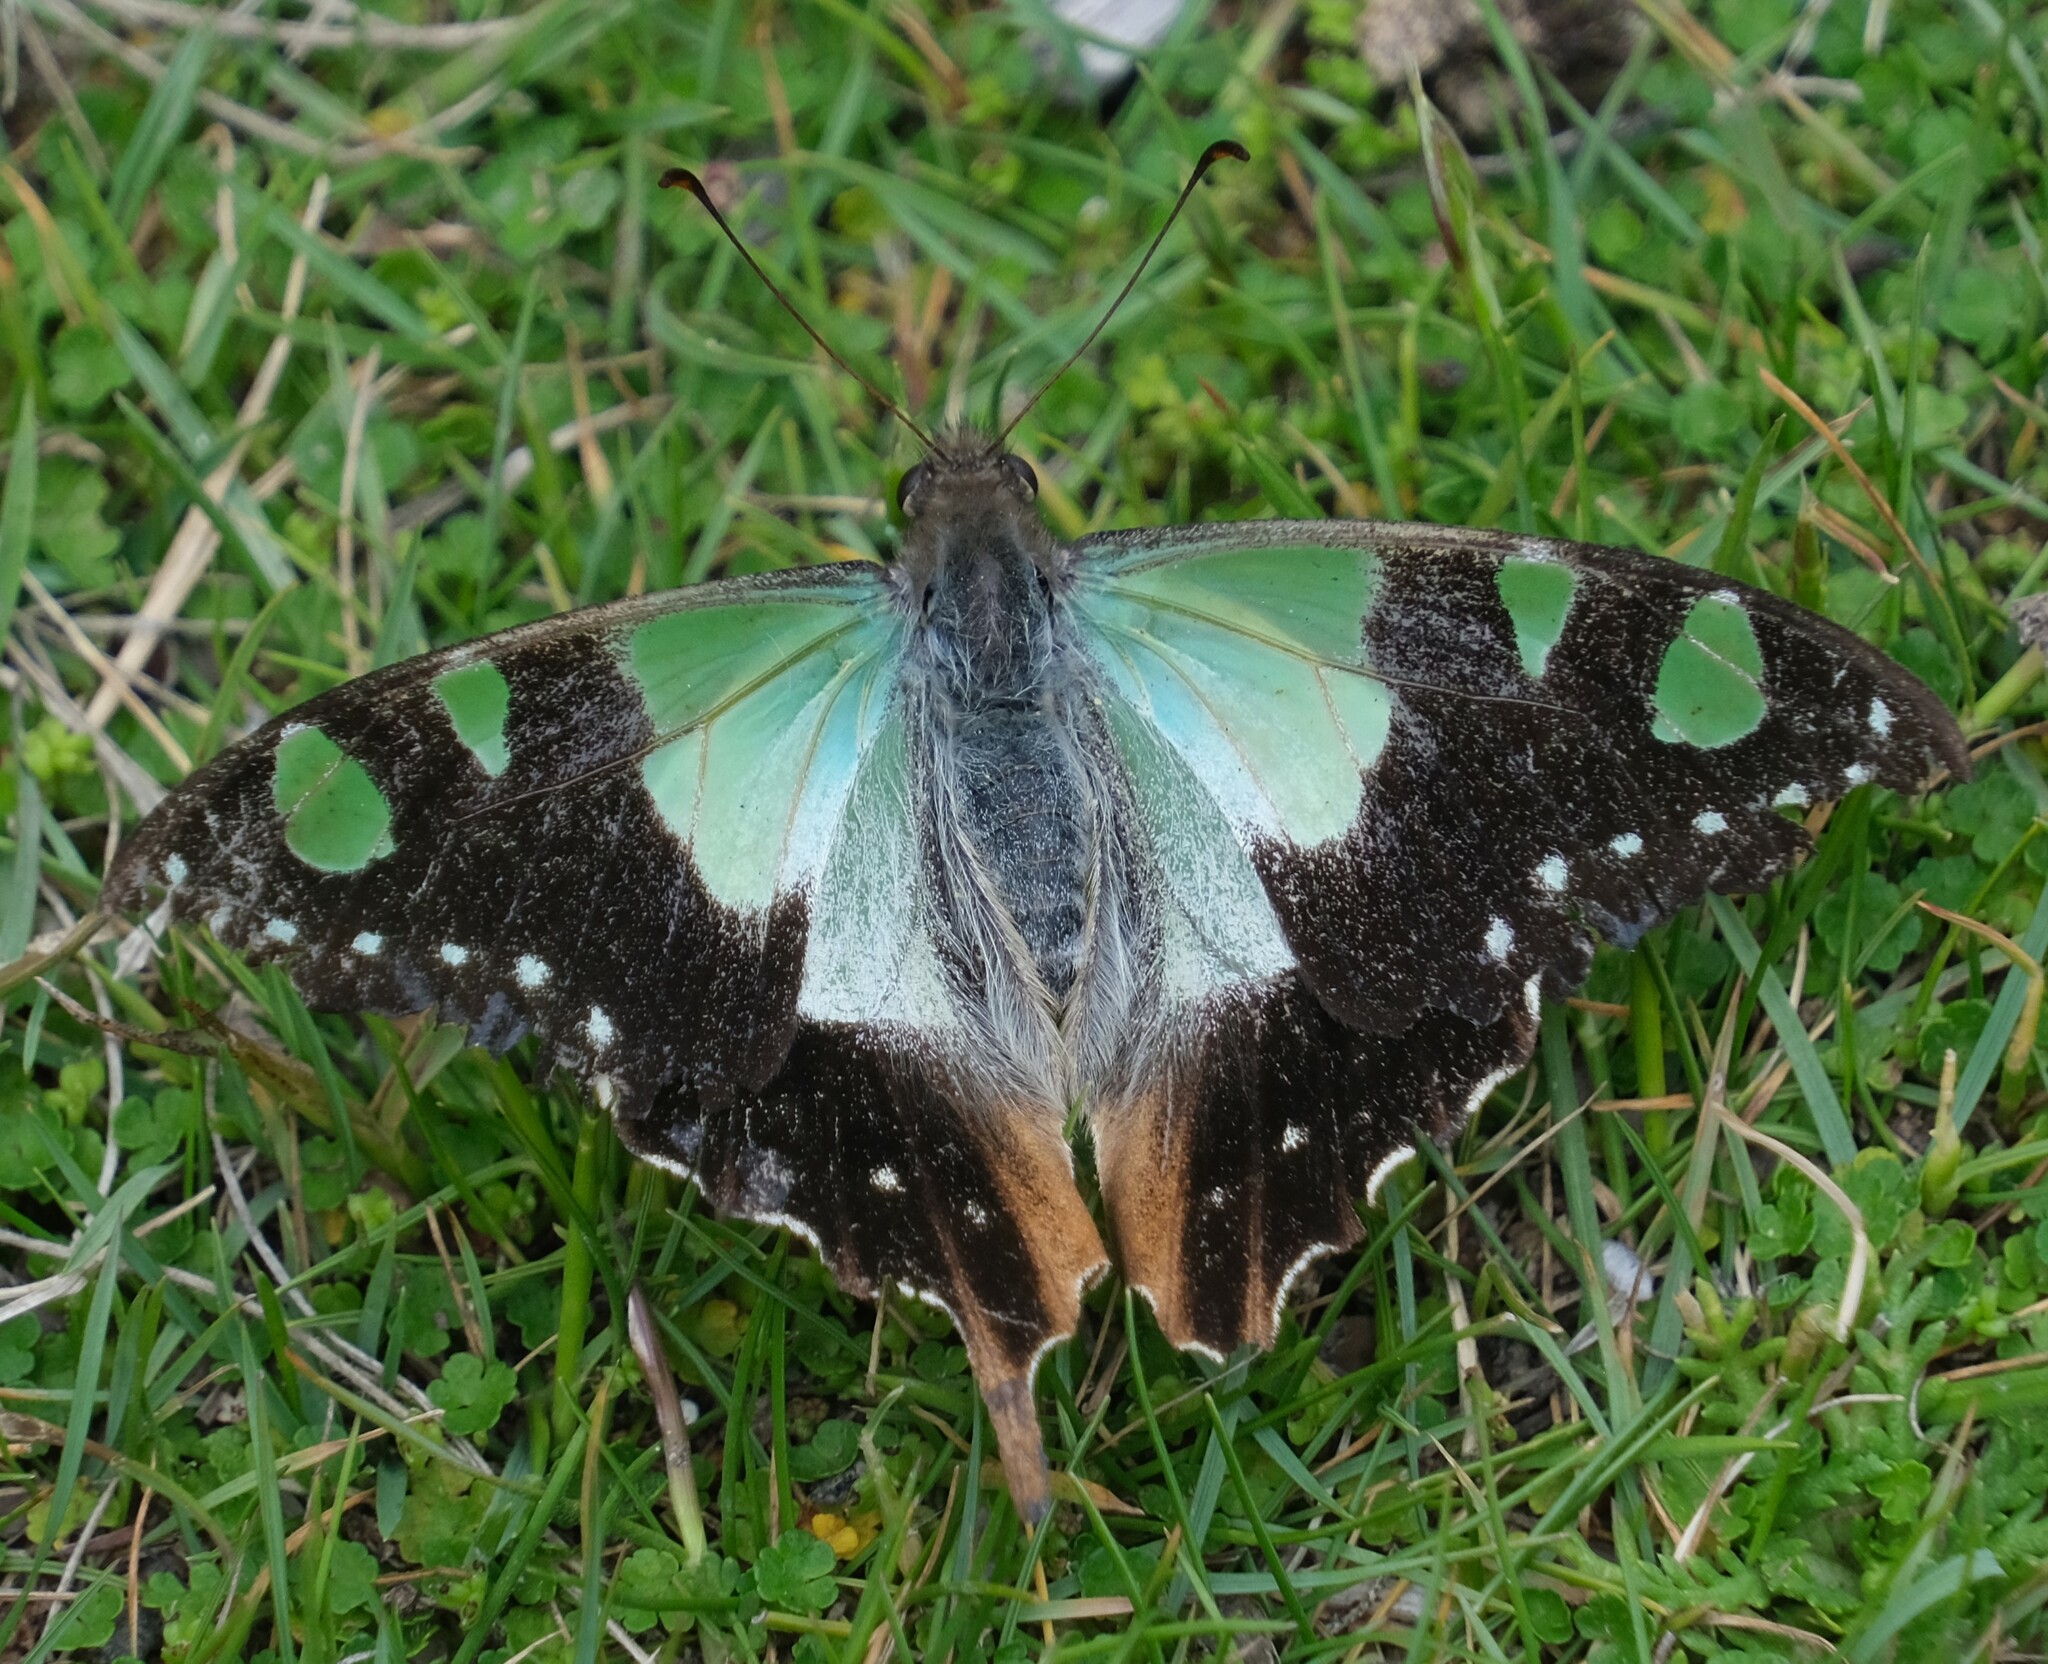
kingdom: Animalia
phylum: Arthropoda
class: Insecta
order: Lepidoptera
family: Papilionidae
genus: Graphium
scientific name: Graphium macleayanus
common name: Macleay's swallowtail
